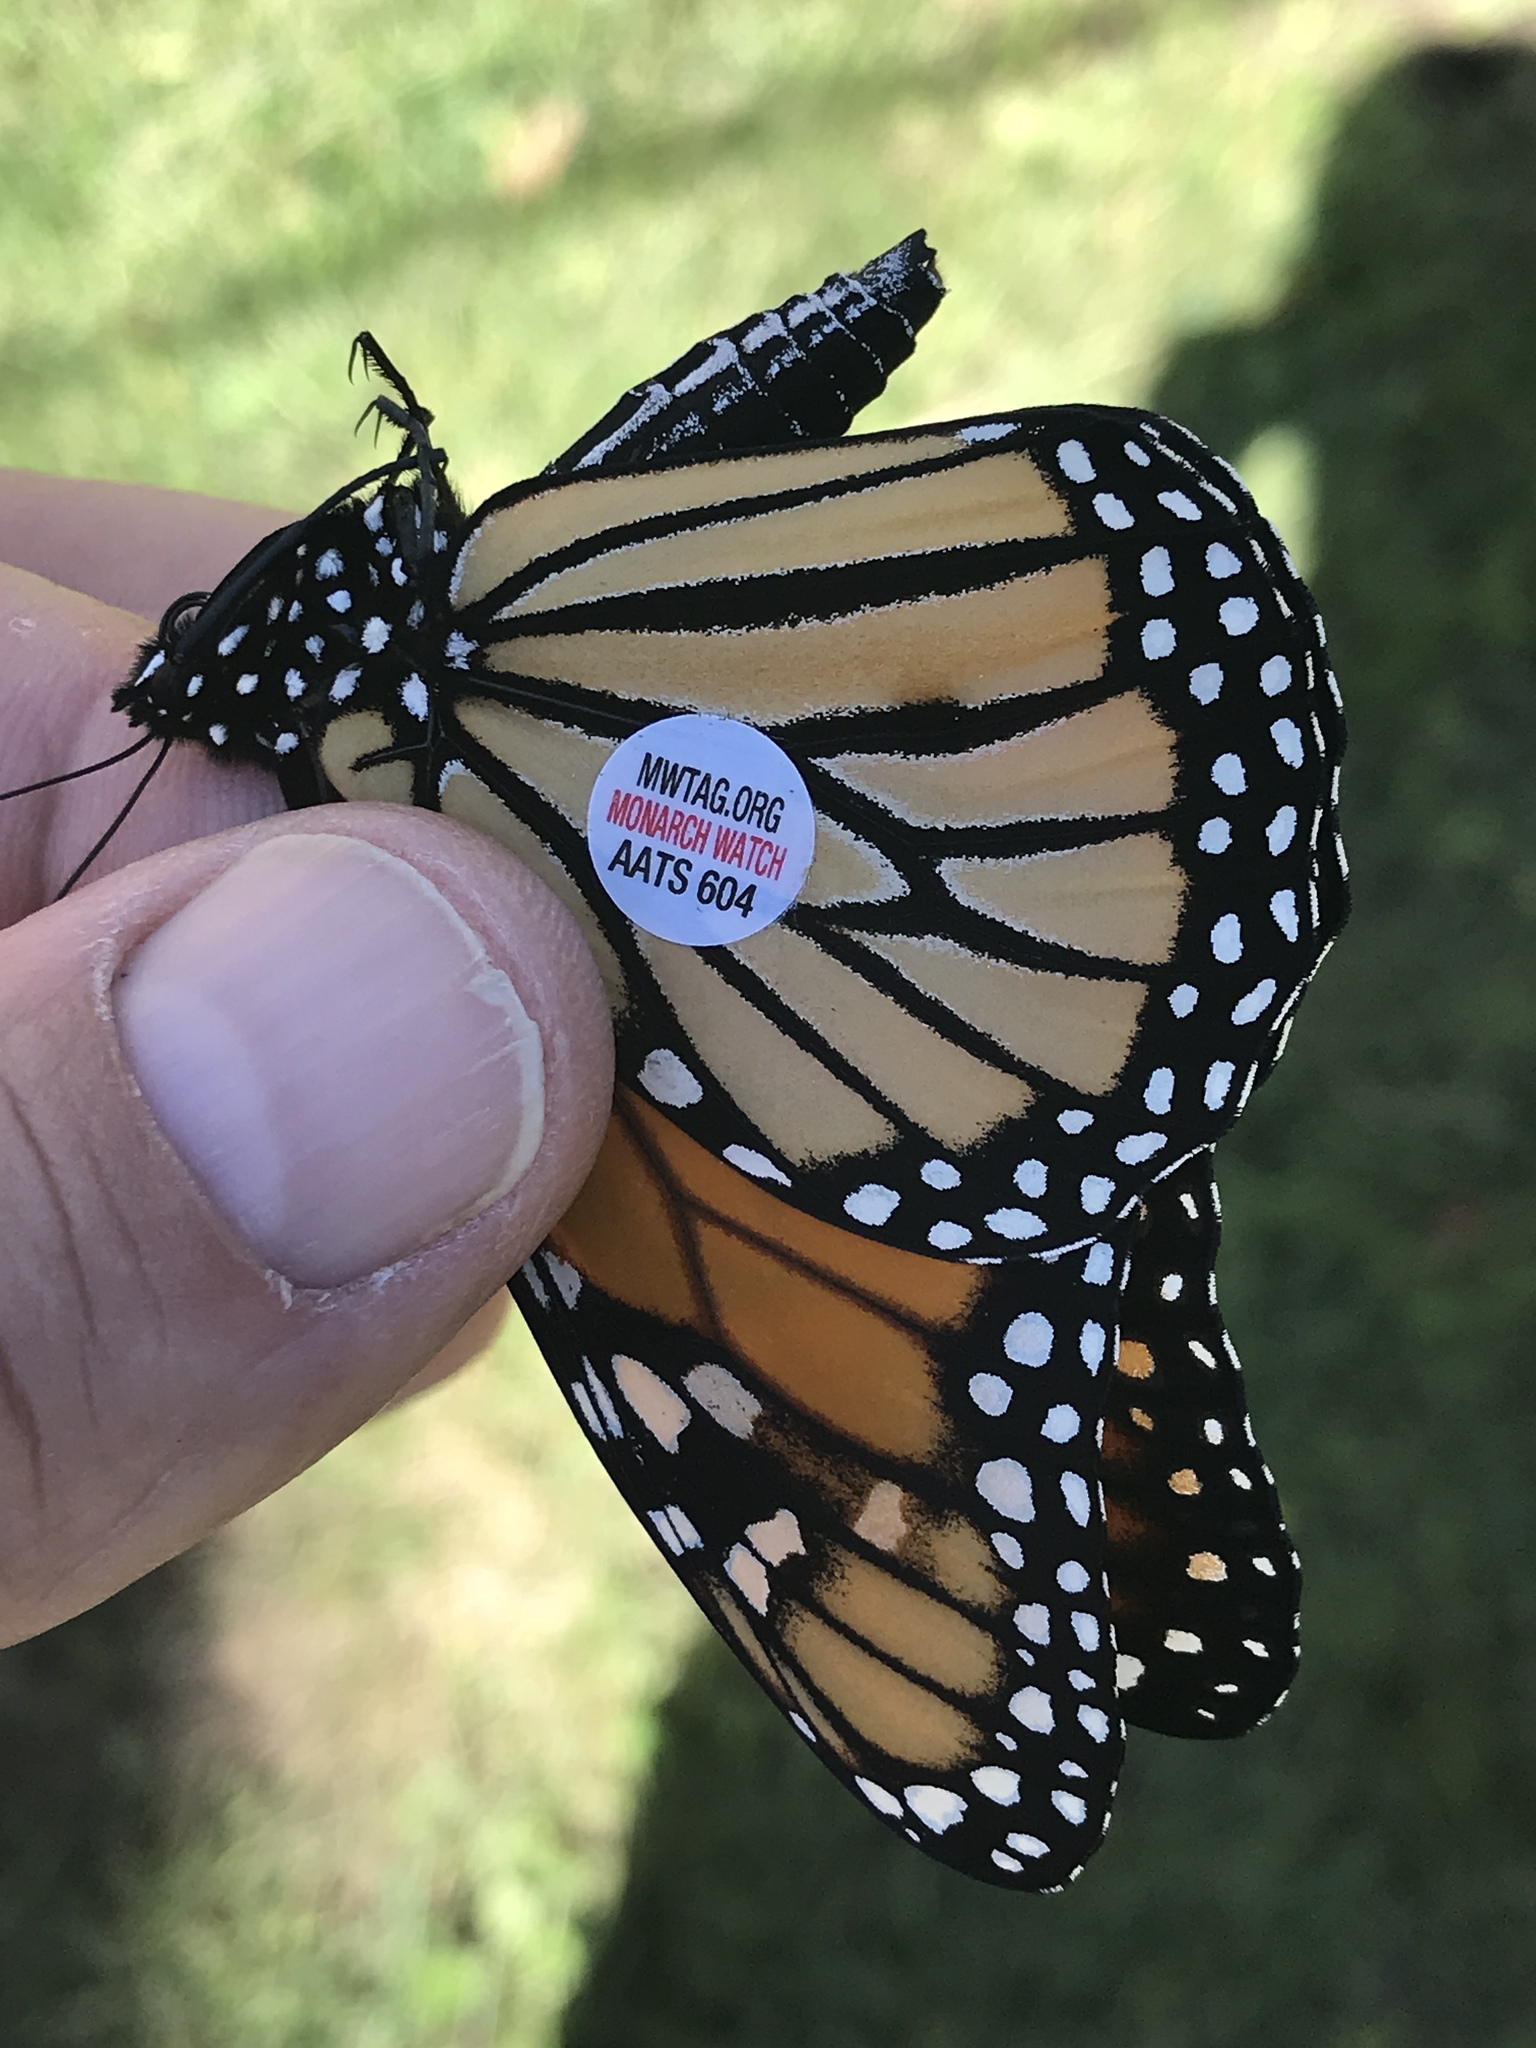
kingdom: Animalia
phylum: Arthropoda
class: Insecta
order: Lepidoptera
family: Nymphalidae
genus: Danaus
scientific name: Danaus plexippus
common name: Monarch
